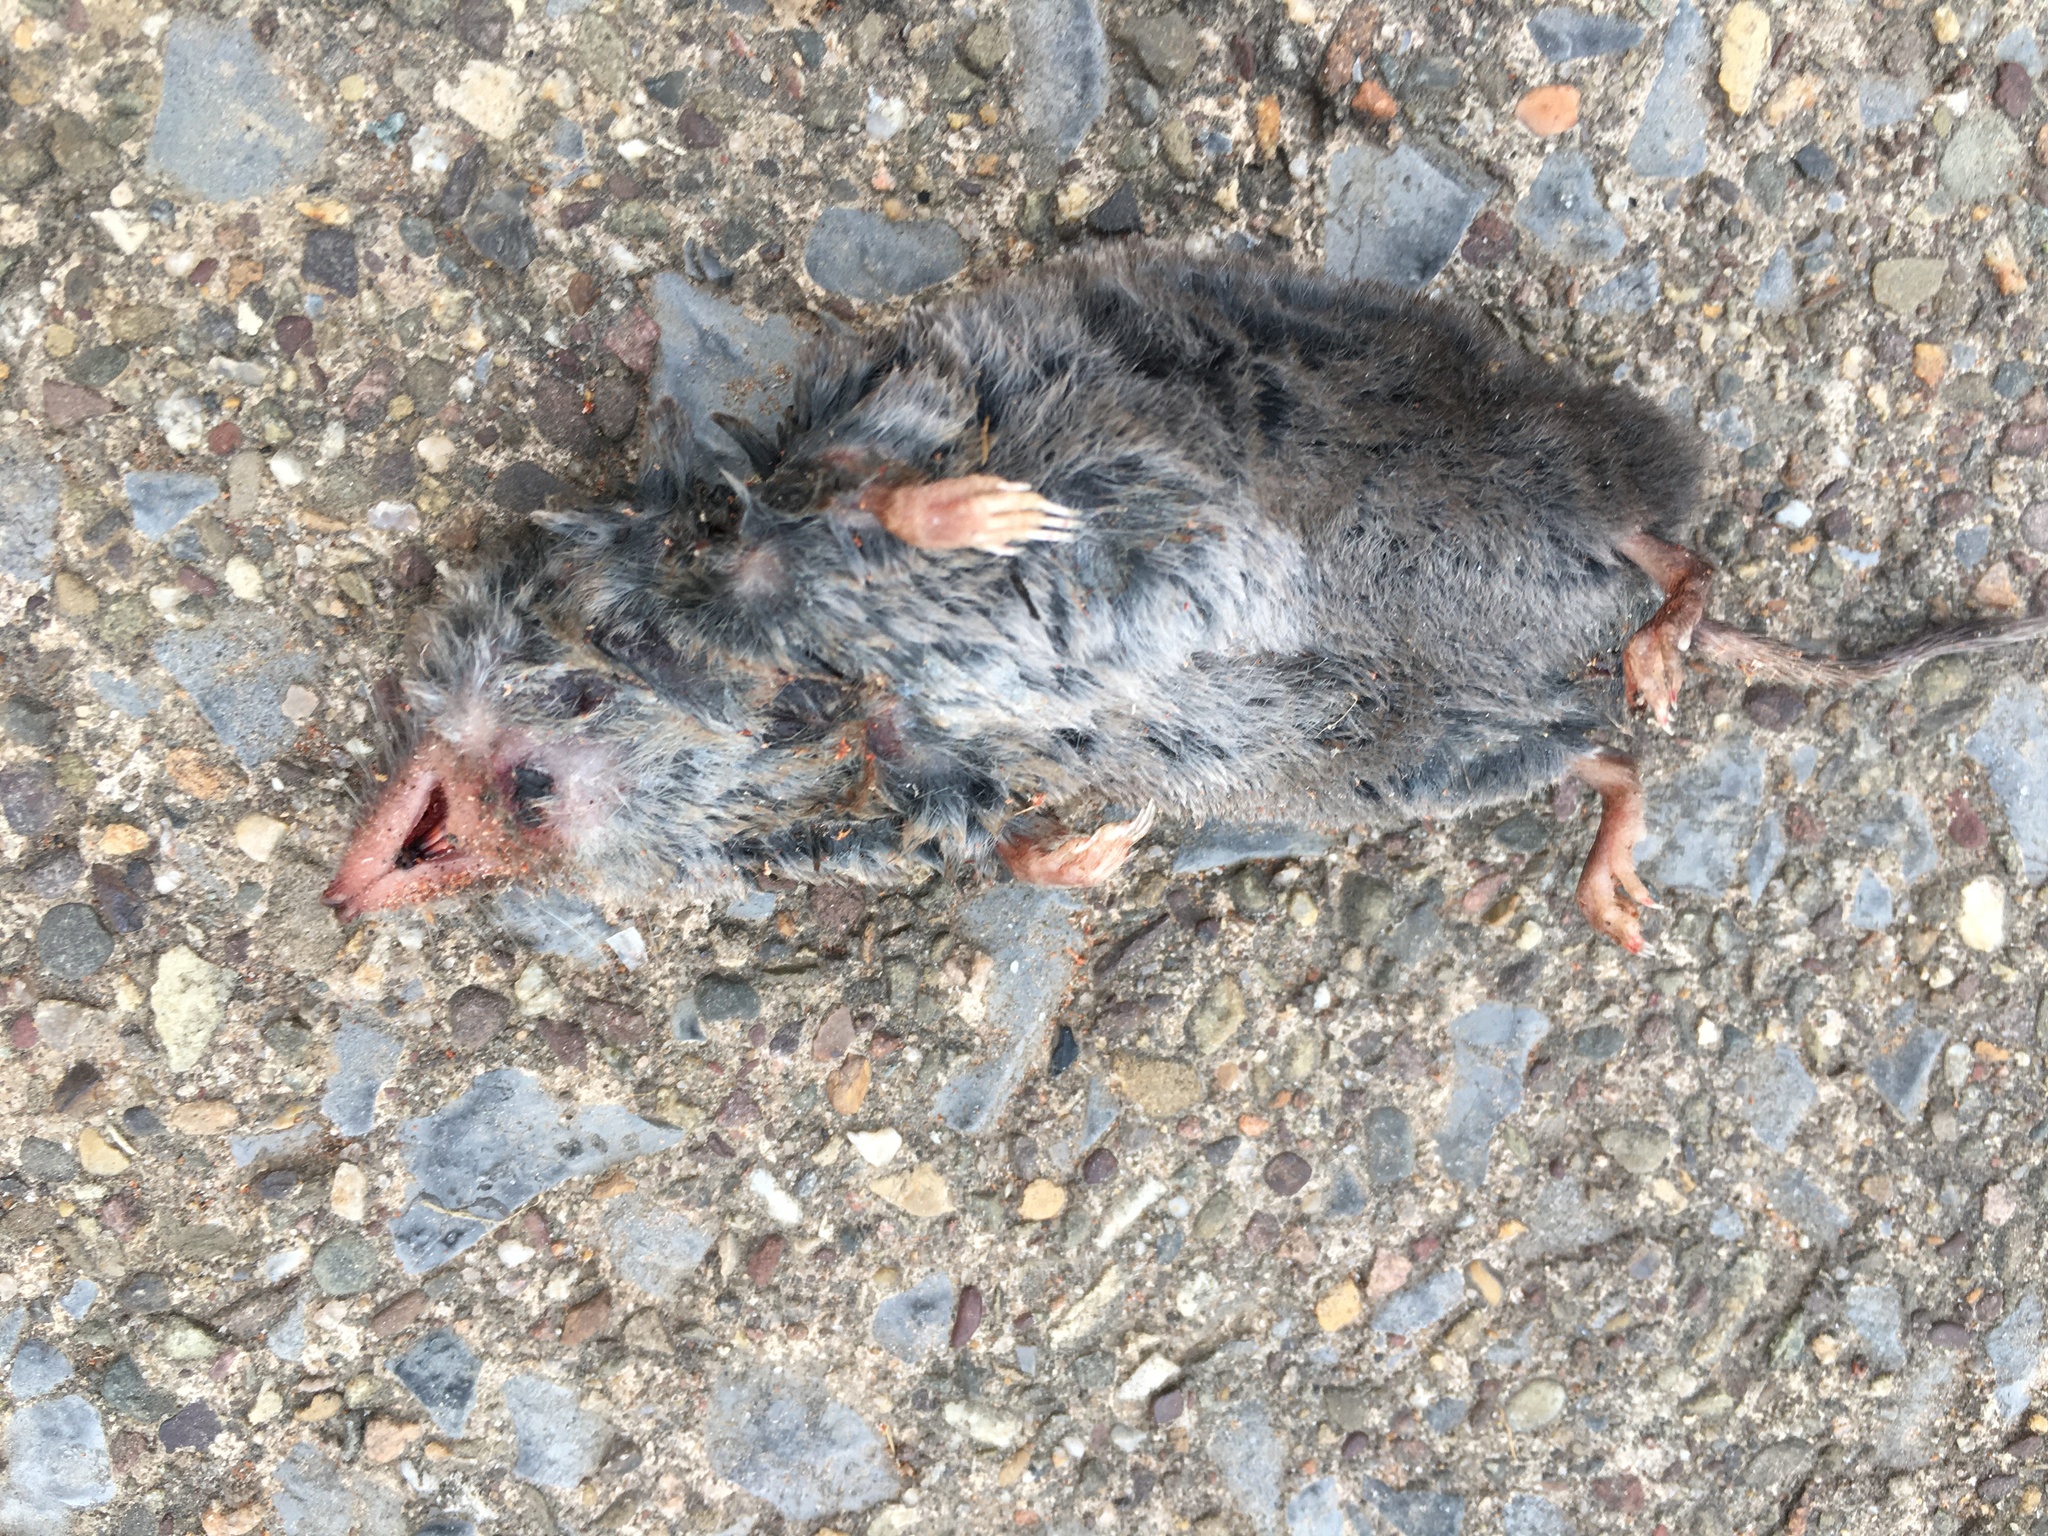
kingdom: Animalia
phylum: Chordata
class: Mammalia
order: Soricomorpha
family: Soricidae
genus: Blarina
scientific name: Blarina brevicauda
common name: Northern short-tailed shrew
